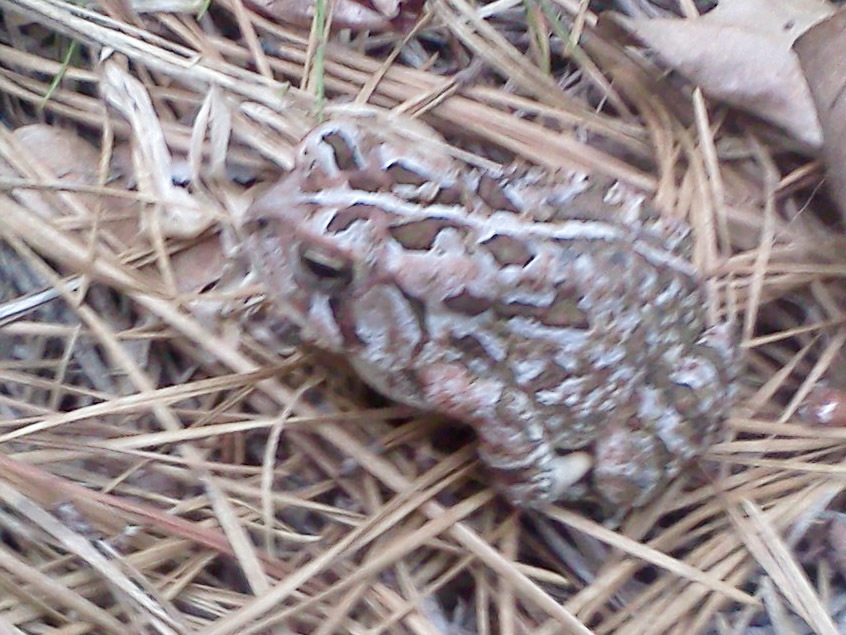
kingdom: Animalia
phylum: Chordata
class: Amphibia
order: Anura
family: Bufonidae
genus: Anaxyrus
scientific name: Anaxyrus fowleri
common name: Fowler's toad
